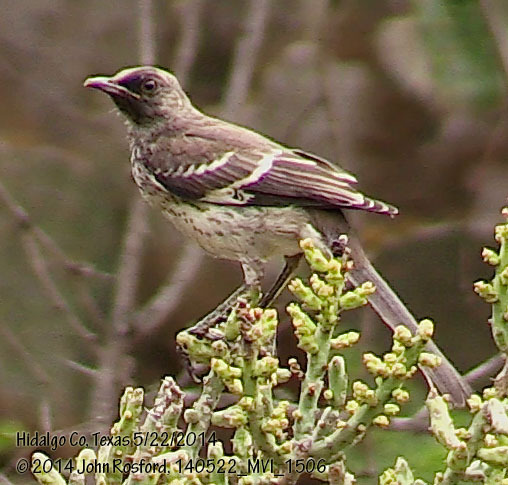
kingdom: Animalia
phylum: Chordata
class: Aves
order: Passeriformes
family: Mimidae
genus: Mimus
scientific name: Mimus polyglottos
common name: Northern mockingbird
